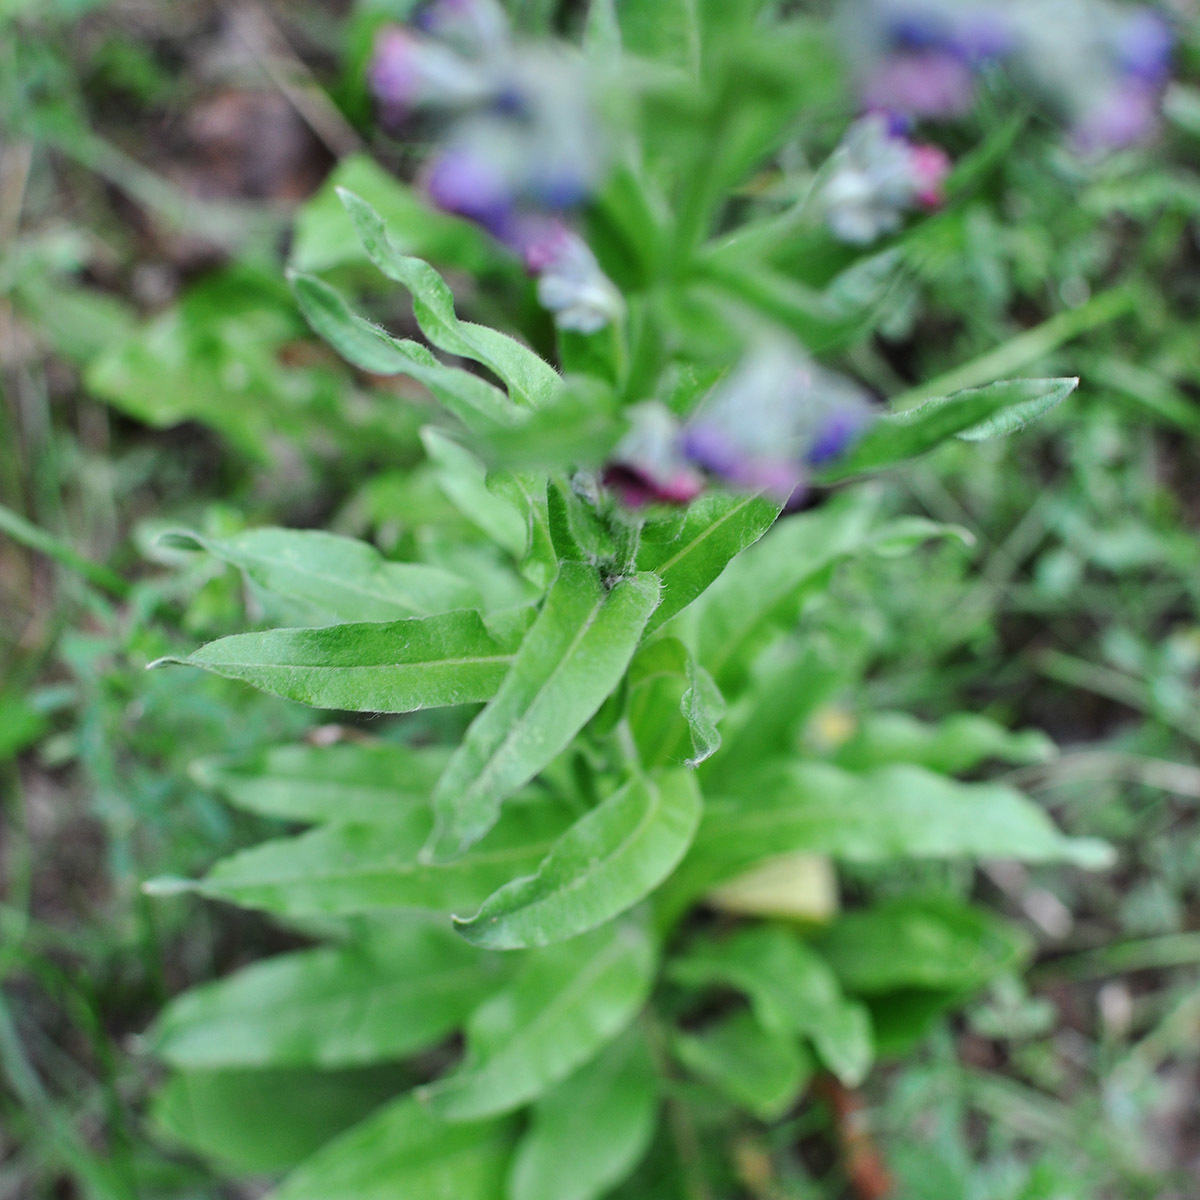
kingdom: Plantae
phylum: Tracheophyta
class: Magnoliopsida
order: Boraginales
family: Boraginaceae
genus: Cynoglossum
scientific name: Cynoglossum officinale
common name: Hound's-tongue
